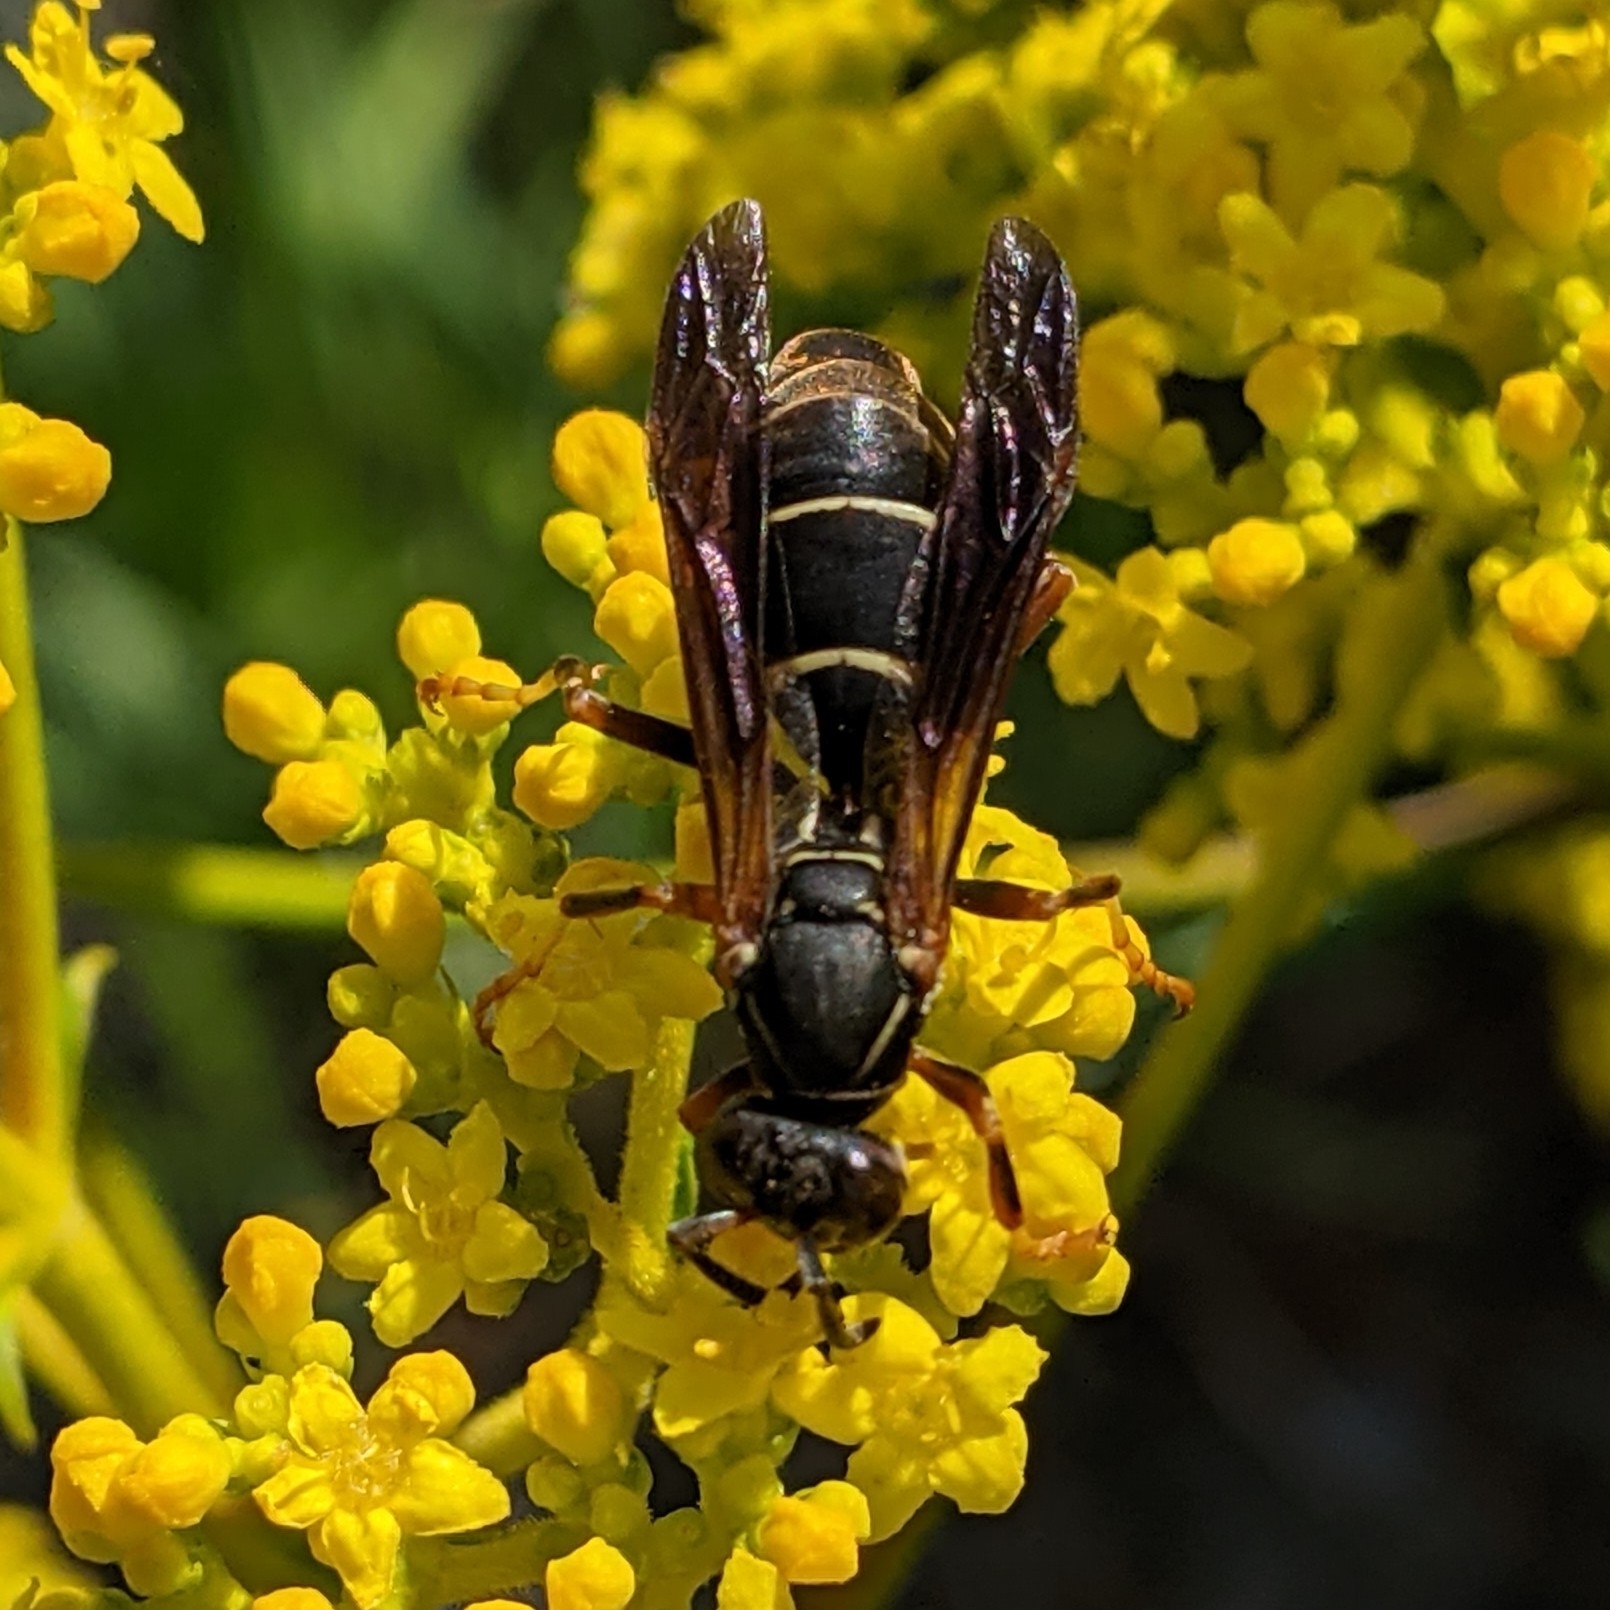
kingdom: Animalia
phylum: Arthropoda
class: Insecta
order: Hymenoptera
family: Eumenidae
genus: Polistes
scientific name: Polistes fuscatus
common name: Dark paper wasp
